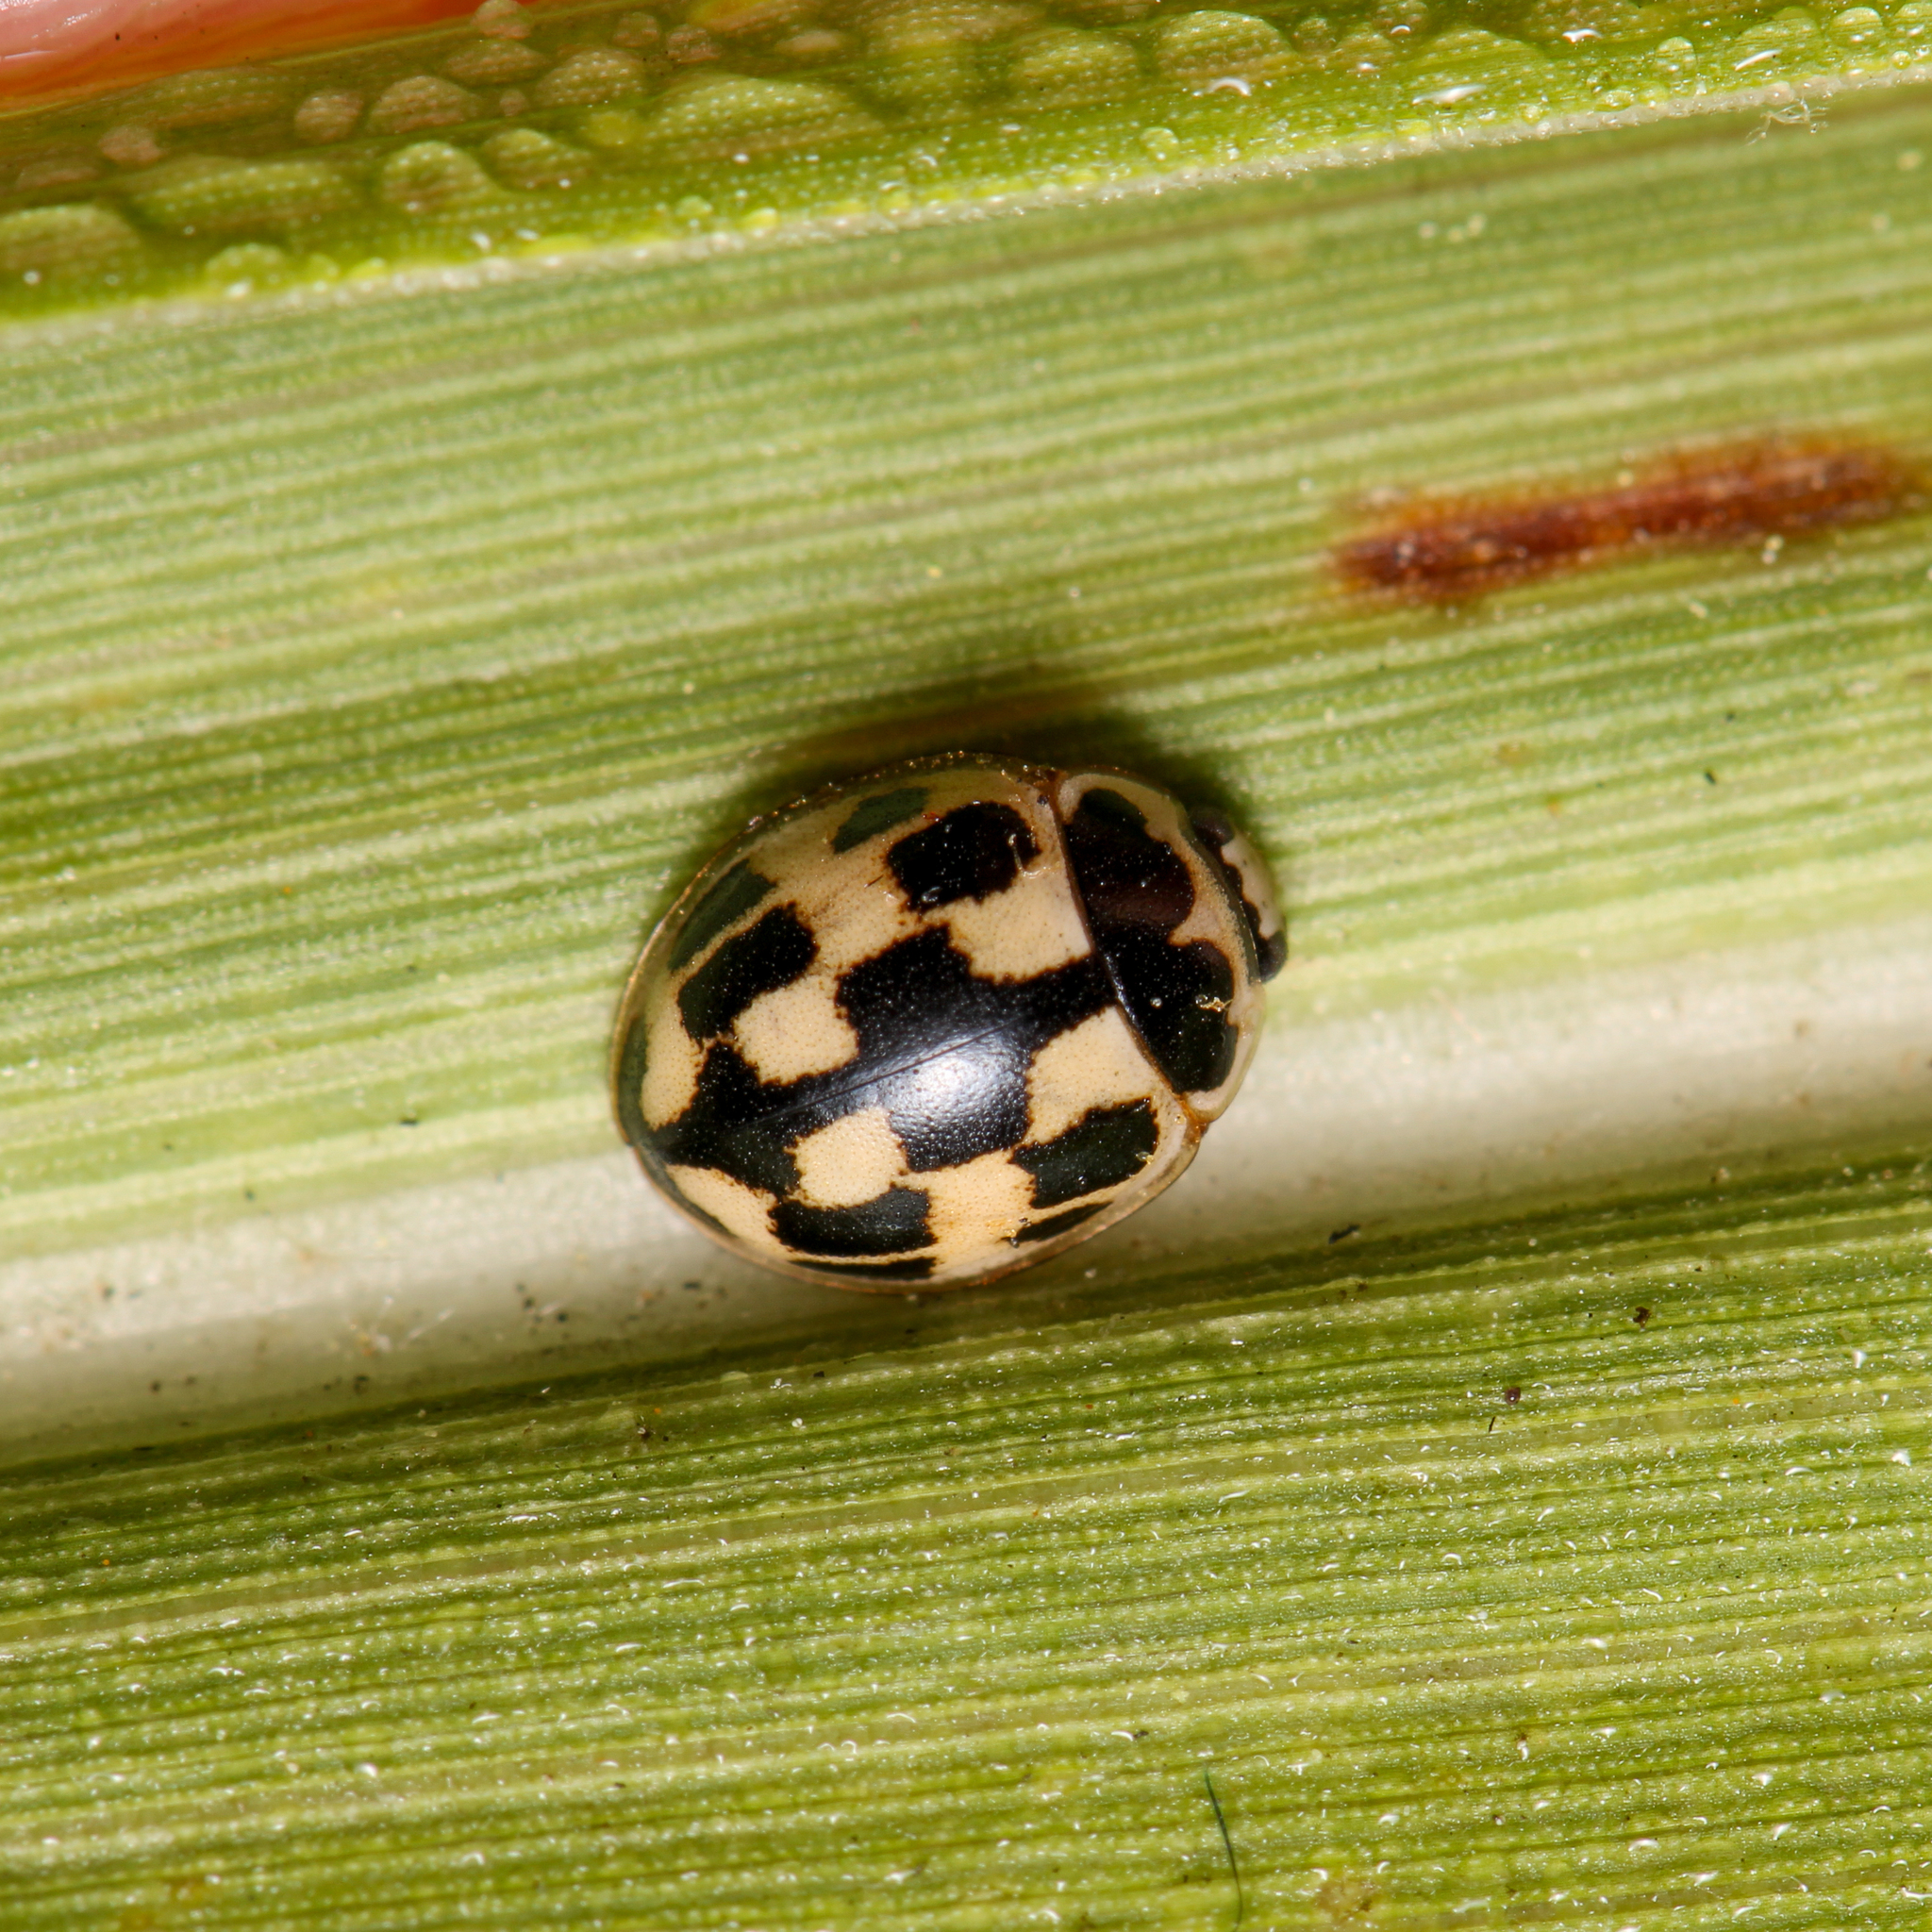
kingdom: Animalia
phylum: Arthropoda
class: Insecta
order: Coleoptera
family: Coccinellidae
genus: Propylaea
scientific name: Propylaea quatuordecimpunctata
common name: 14-spotted ladybird beetle
